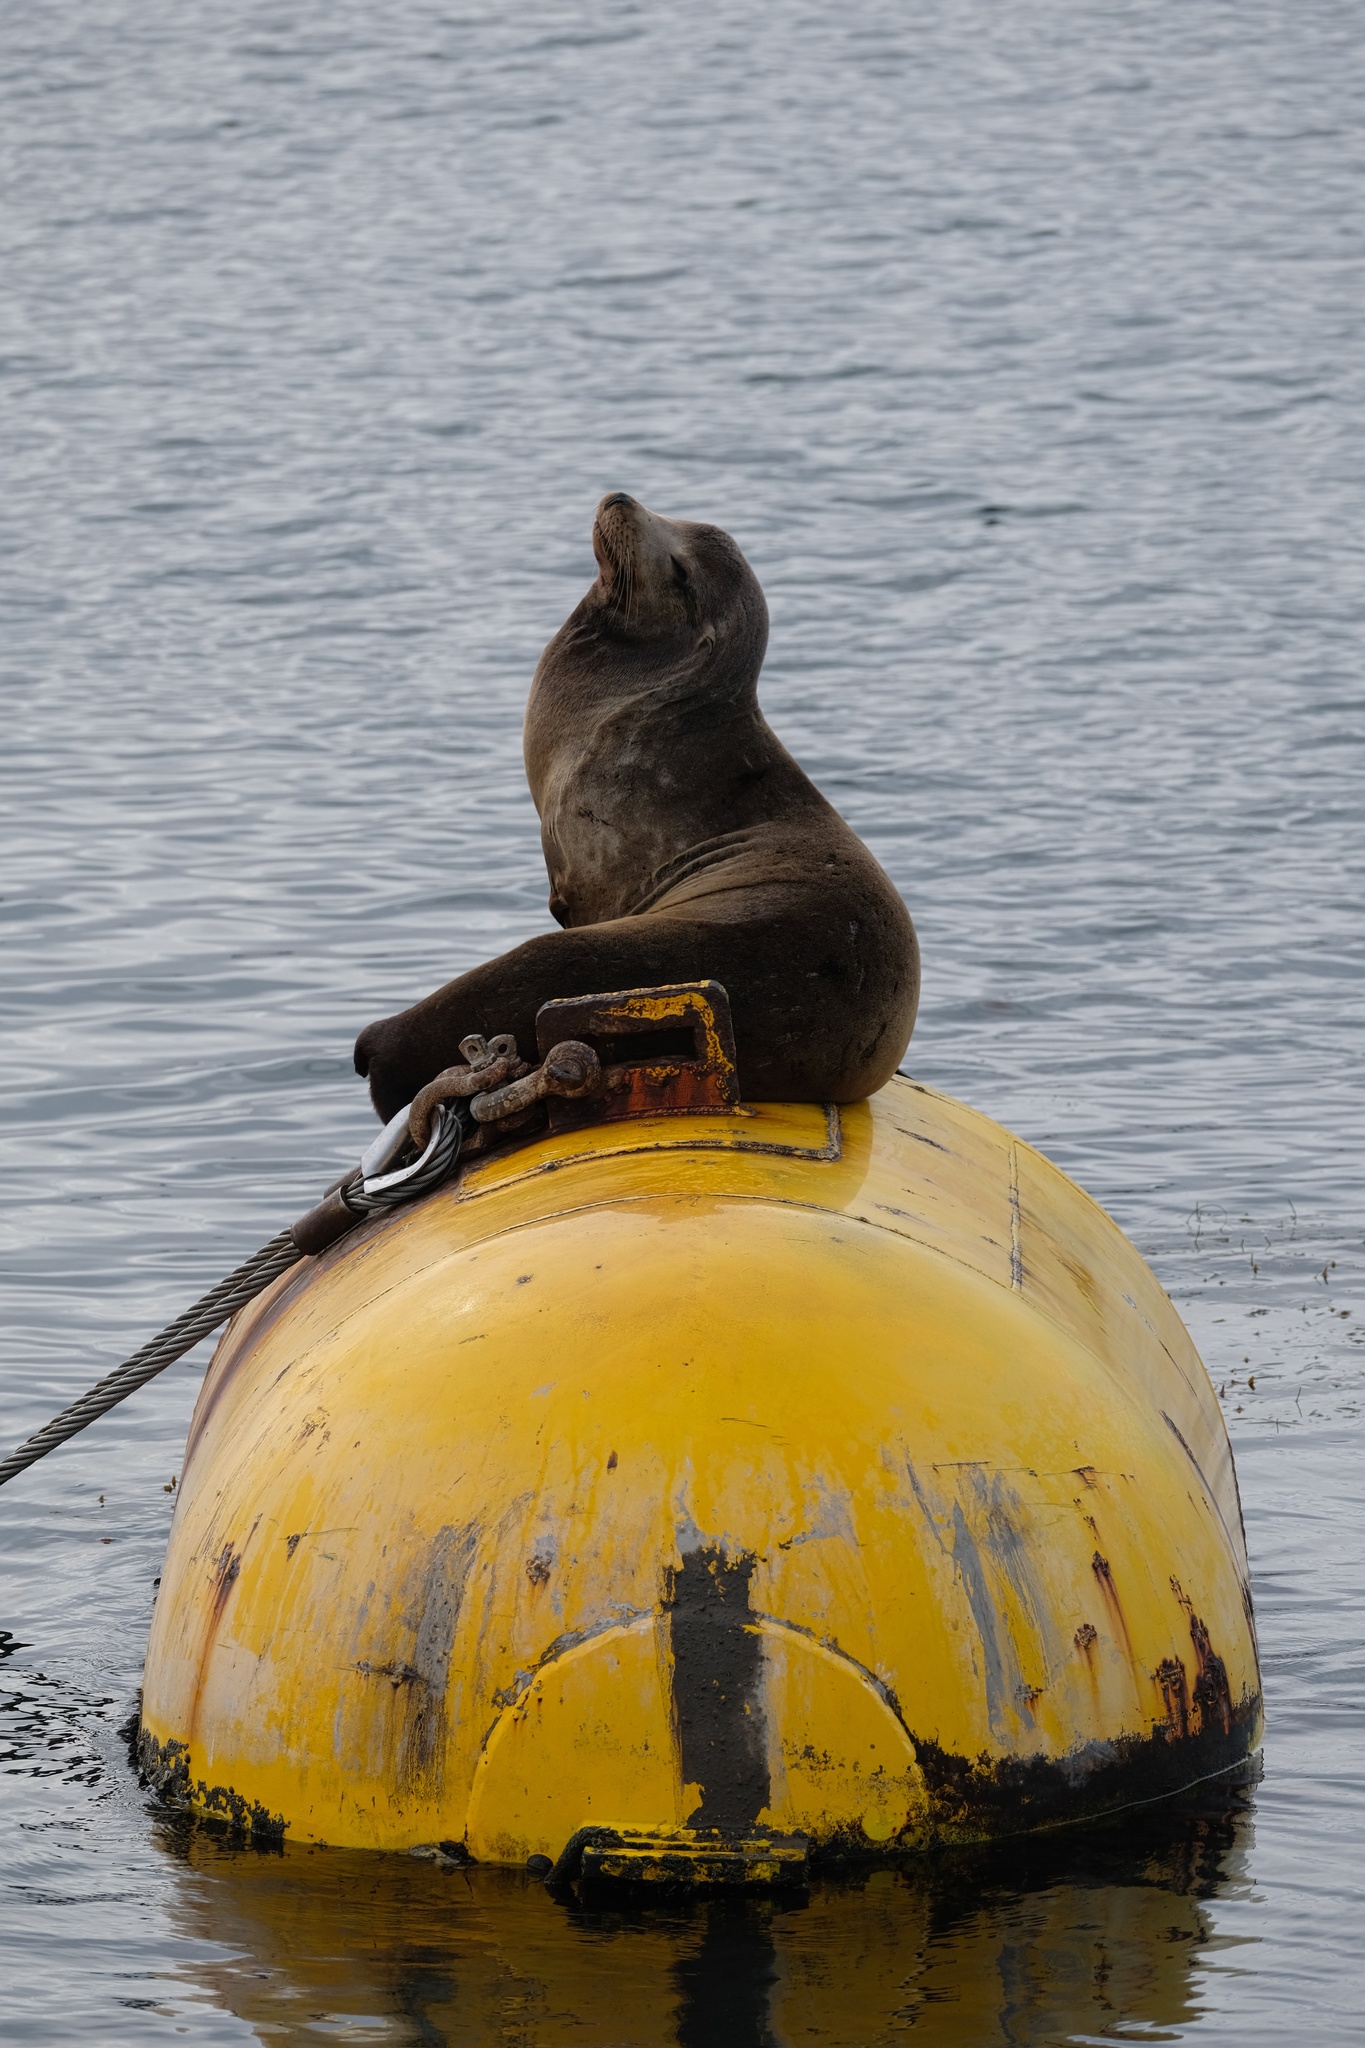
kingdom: Animalia
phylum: Chordata
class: Mammalia
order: Carnivora
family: Otariidae
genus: Zalophus
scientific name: Zalophus californianus
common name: California sea lion
